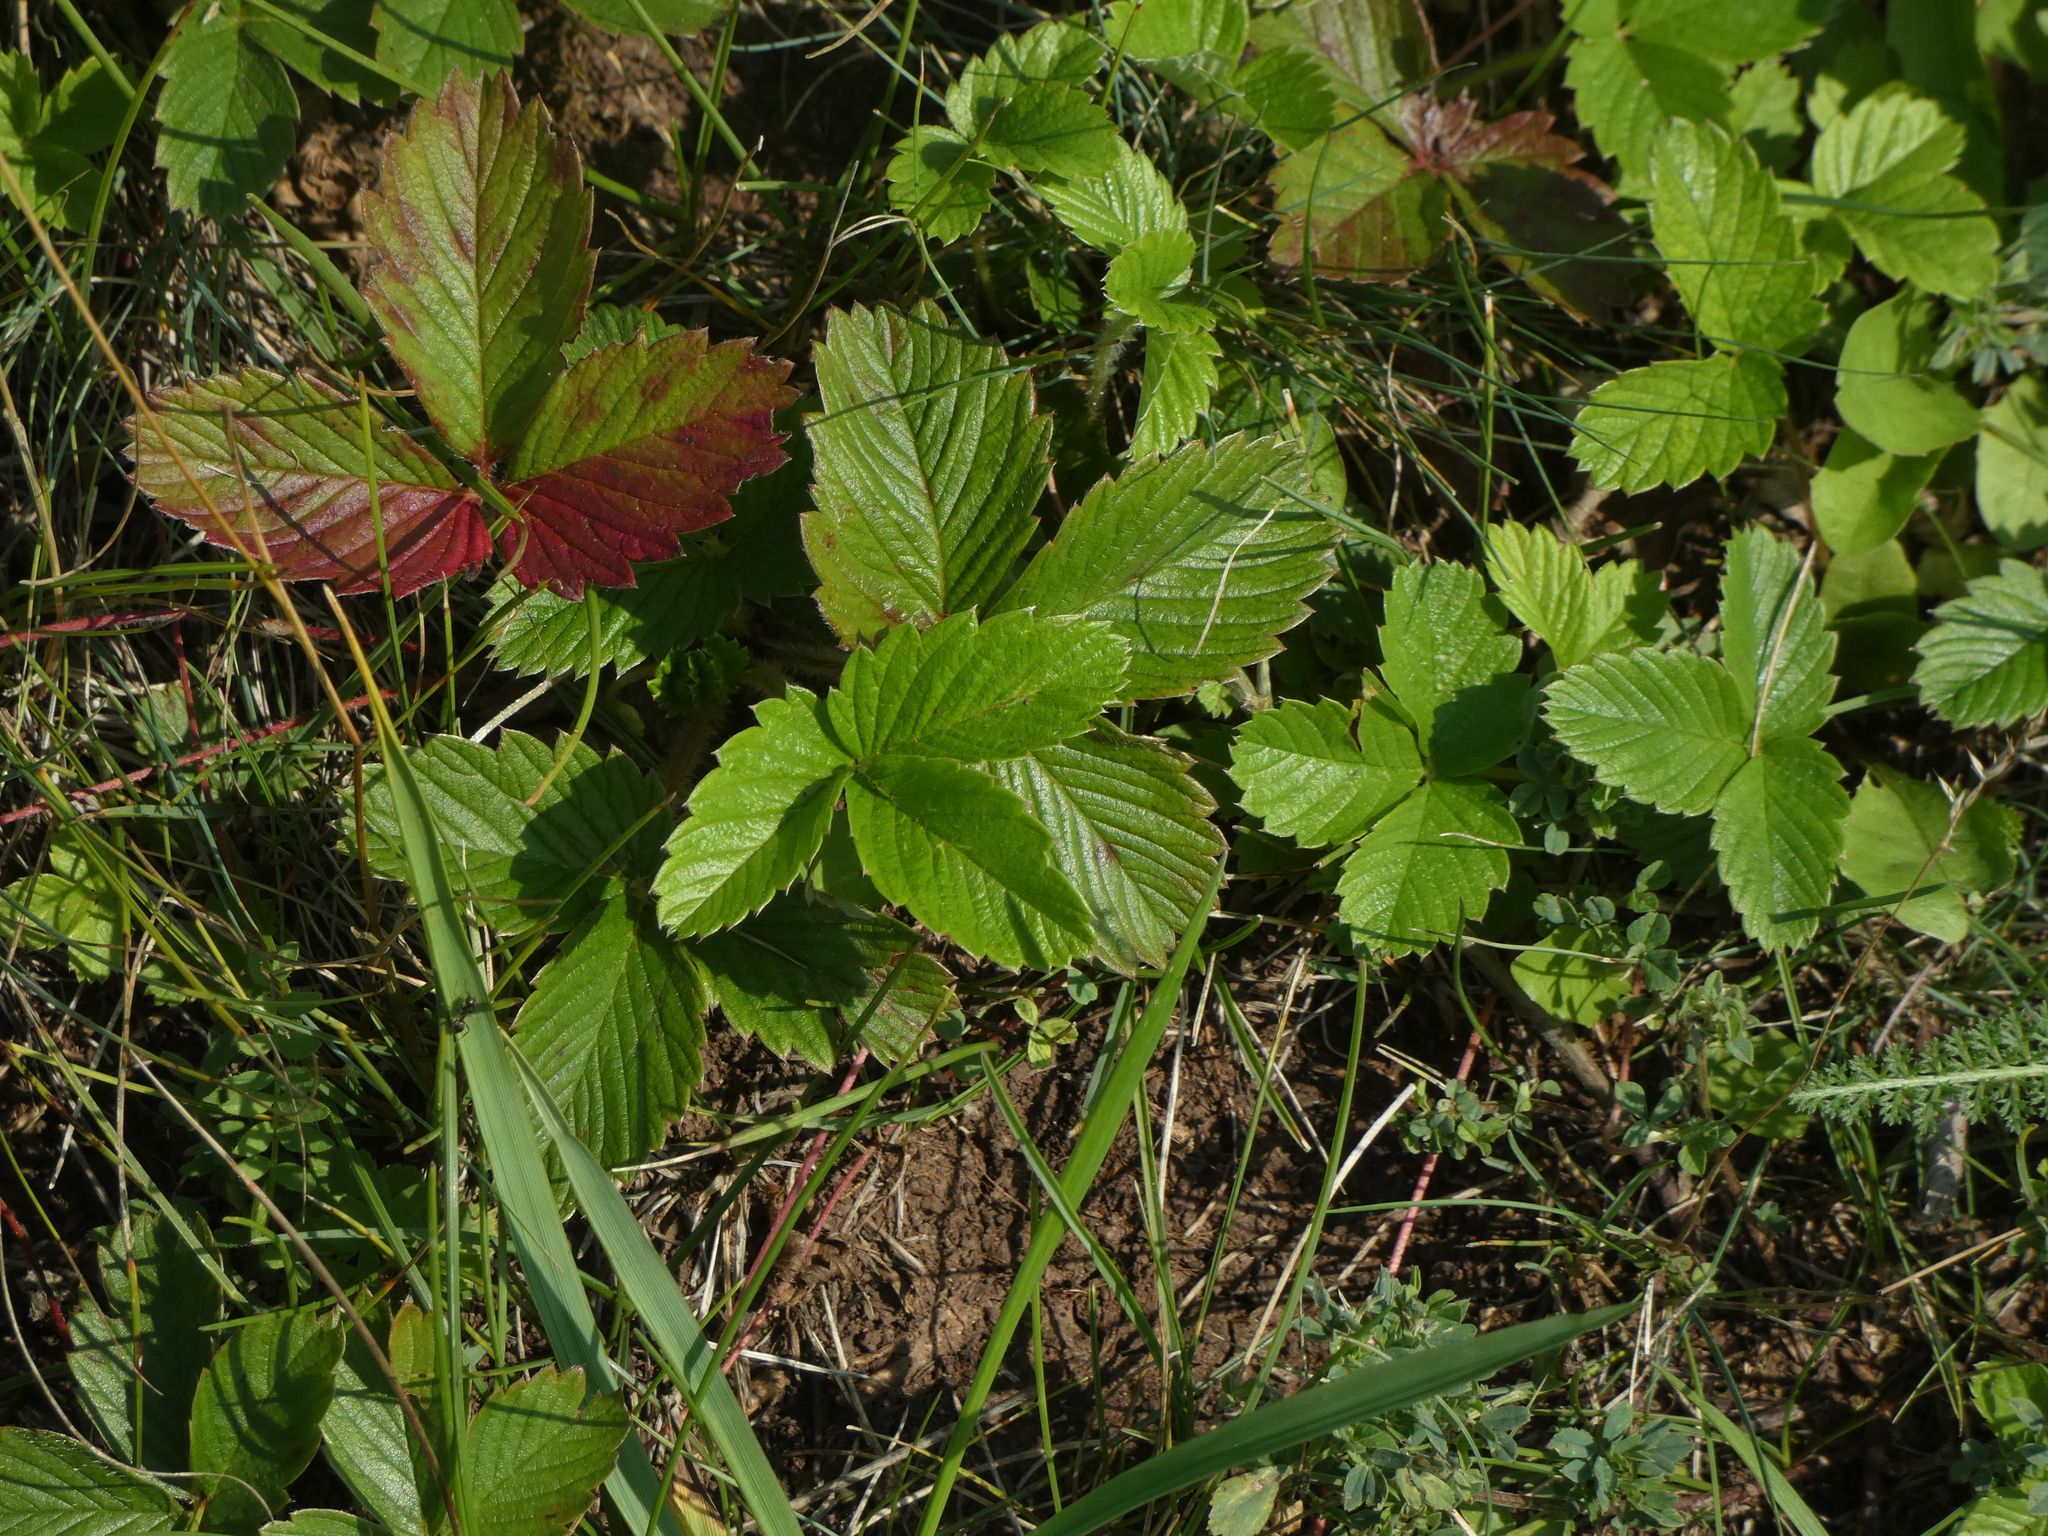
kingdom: Plantae
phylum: Tracheophyta
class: Magnoliopsida
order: Rosales
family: Rosaceae
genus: Fragaria
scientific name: Fragaria viridis
